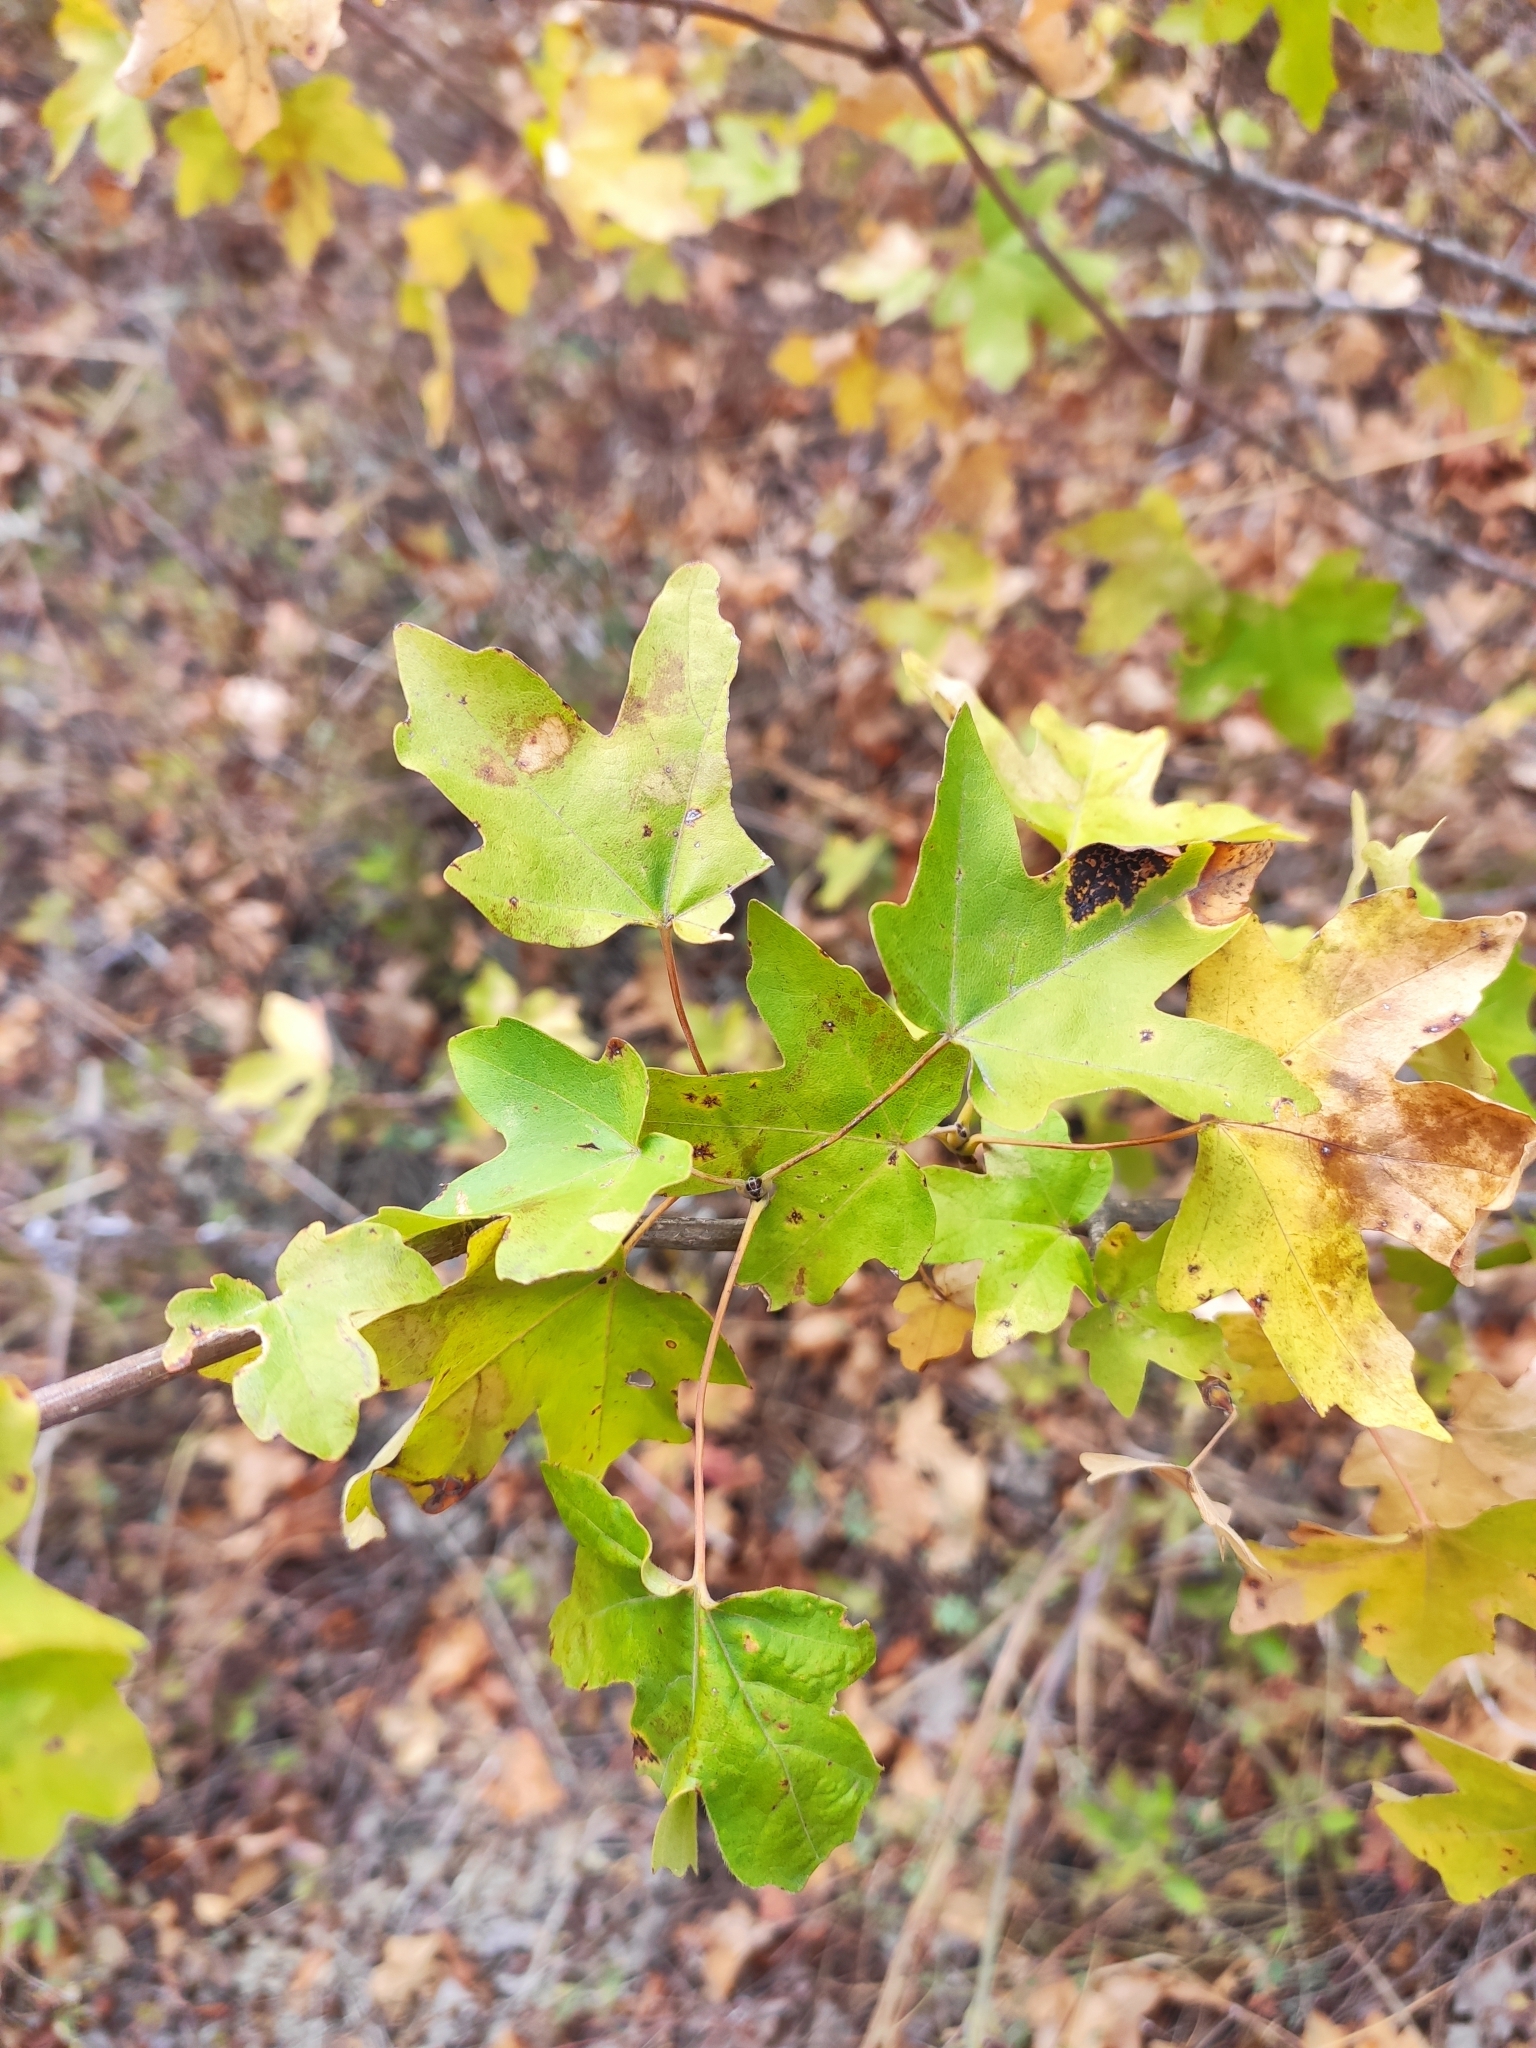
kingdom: Plantae
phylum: Tracheophyta
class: Magnoliopsida
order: Sapindales
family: Sapindaceae
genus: Acer
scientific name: Acer campestre
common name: Field maple
